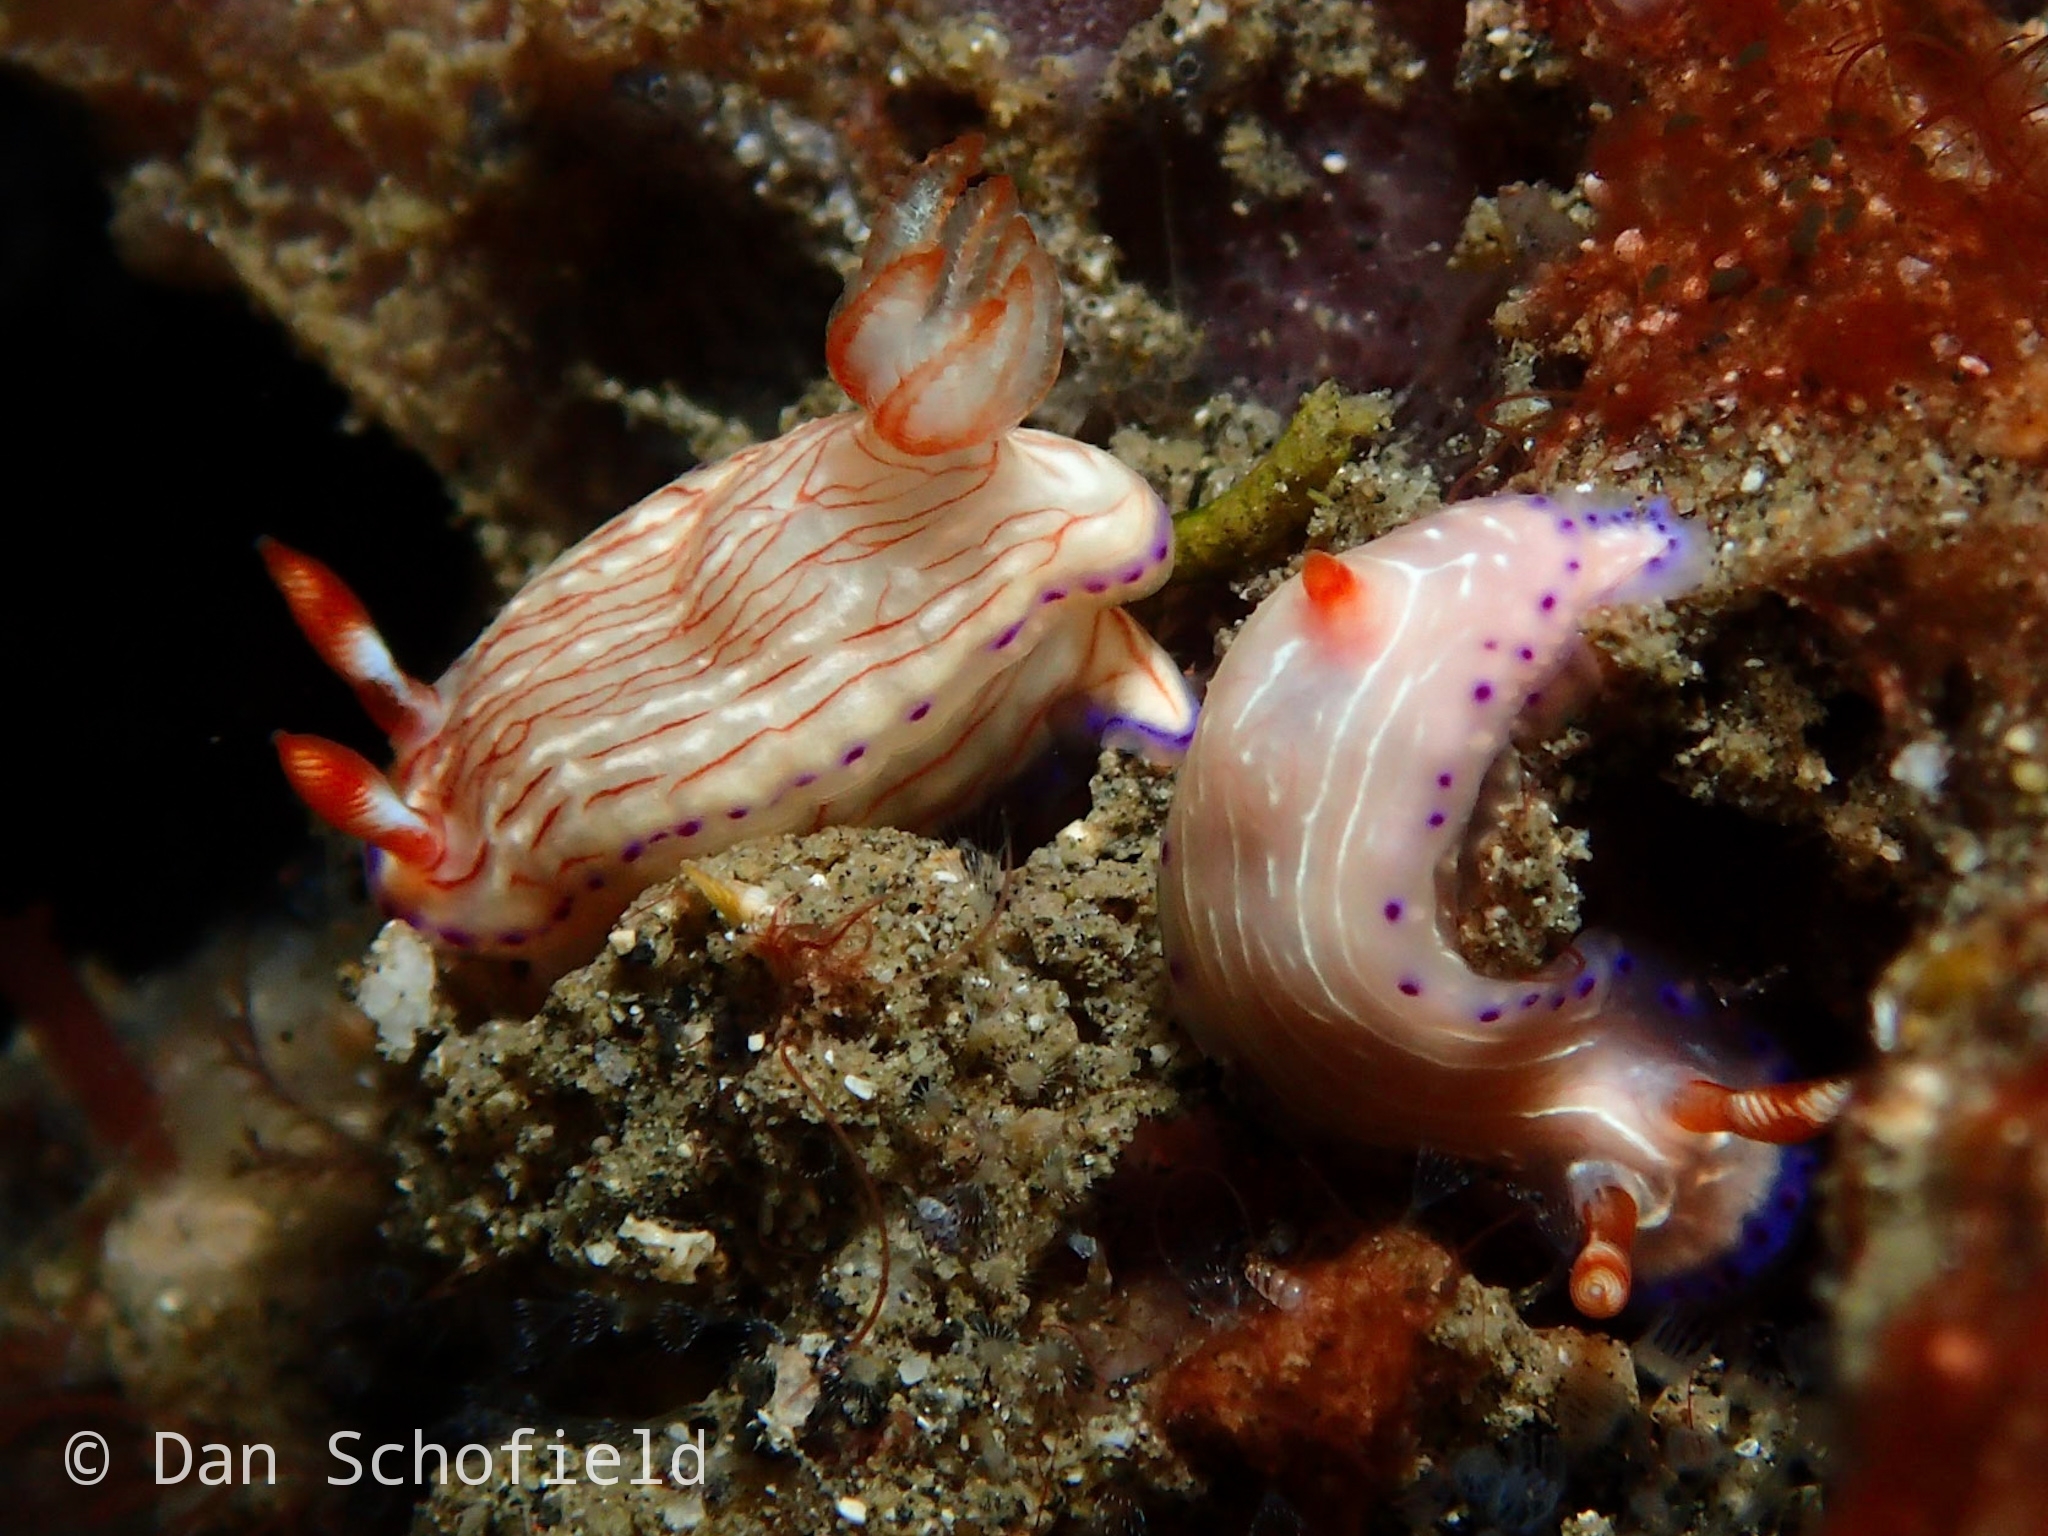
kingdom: Animalia
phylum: Mollusca
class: Gastropoda
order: Nudibranchia
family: Chromodorididae
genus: Hypselodoris
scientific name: Hypselodoris katherinae
